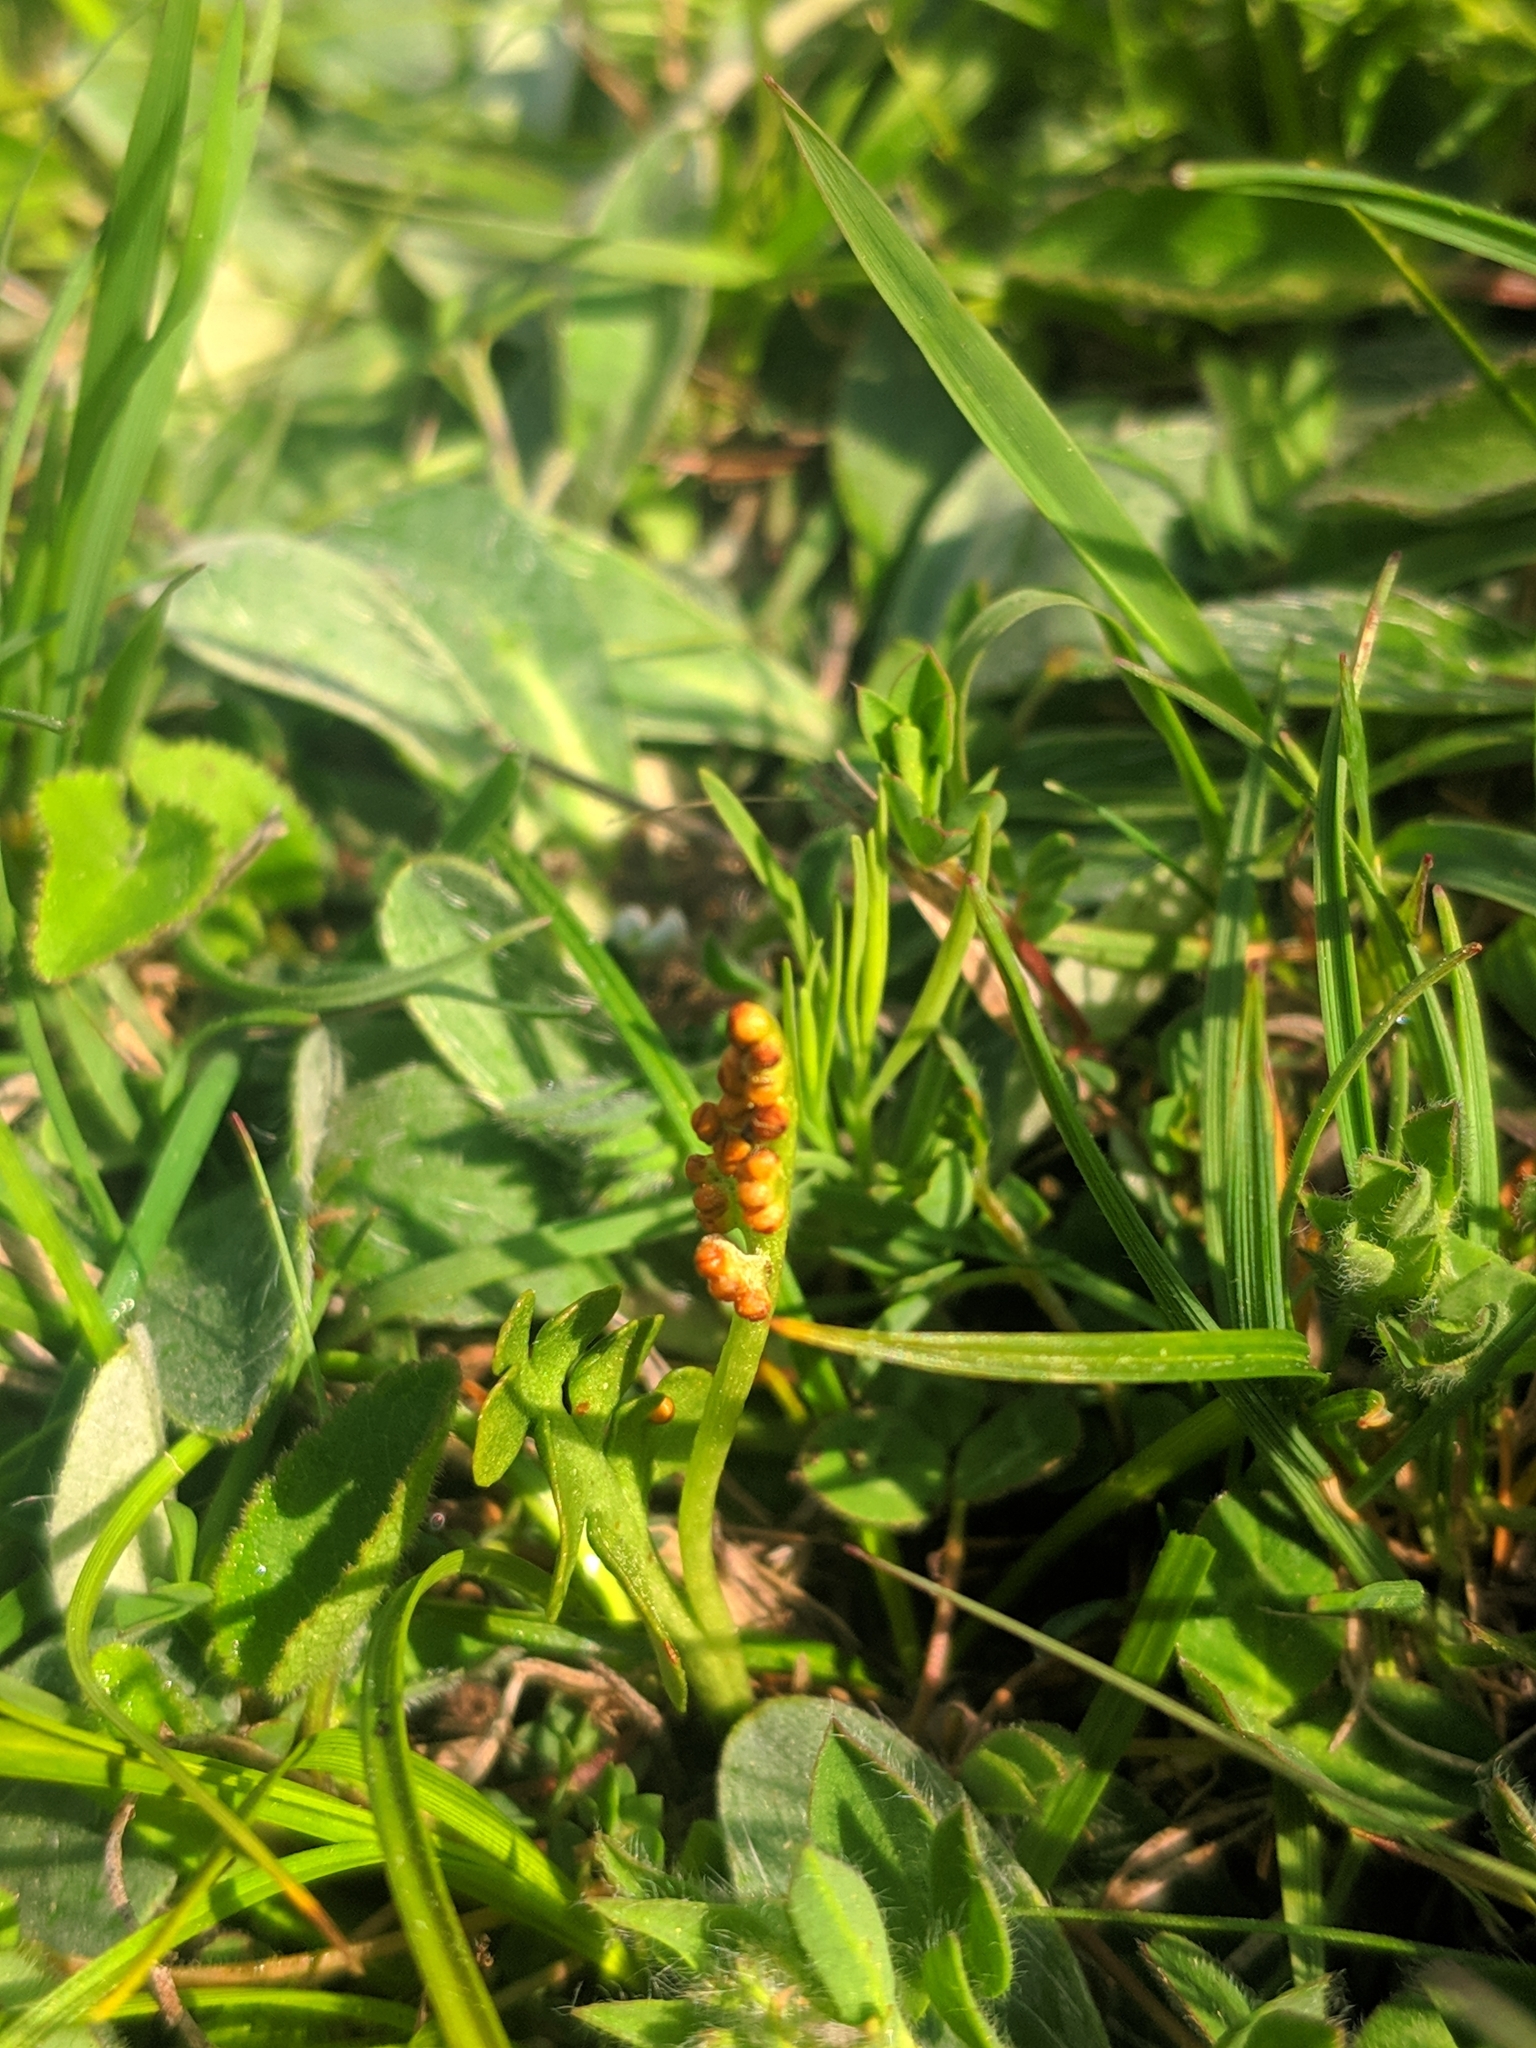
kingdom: Plantae
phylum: Tracheophyta
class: Polypodiopsida
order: Ophioglossales
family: Ophioglossaceae
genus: Botrychium
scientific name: Botrychium lunaria
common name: Moonwort
